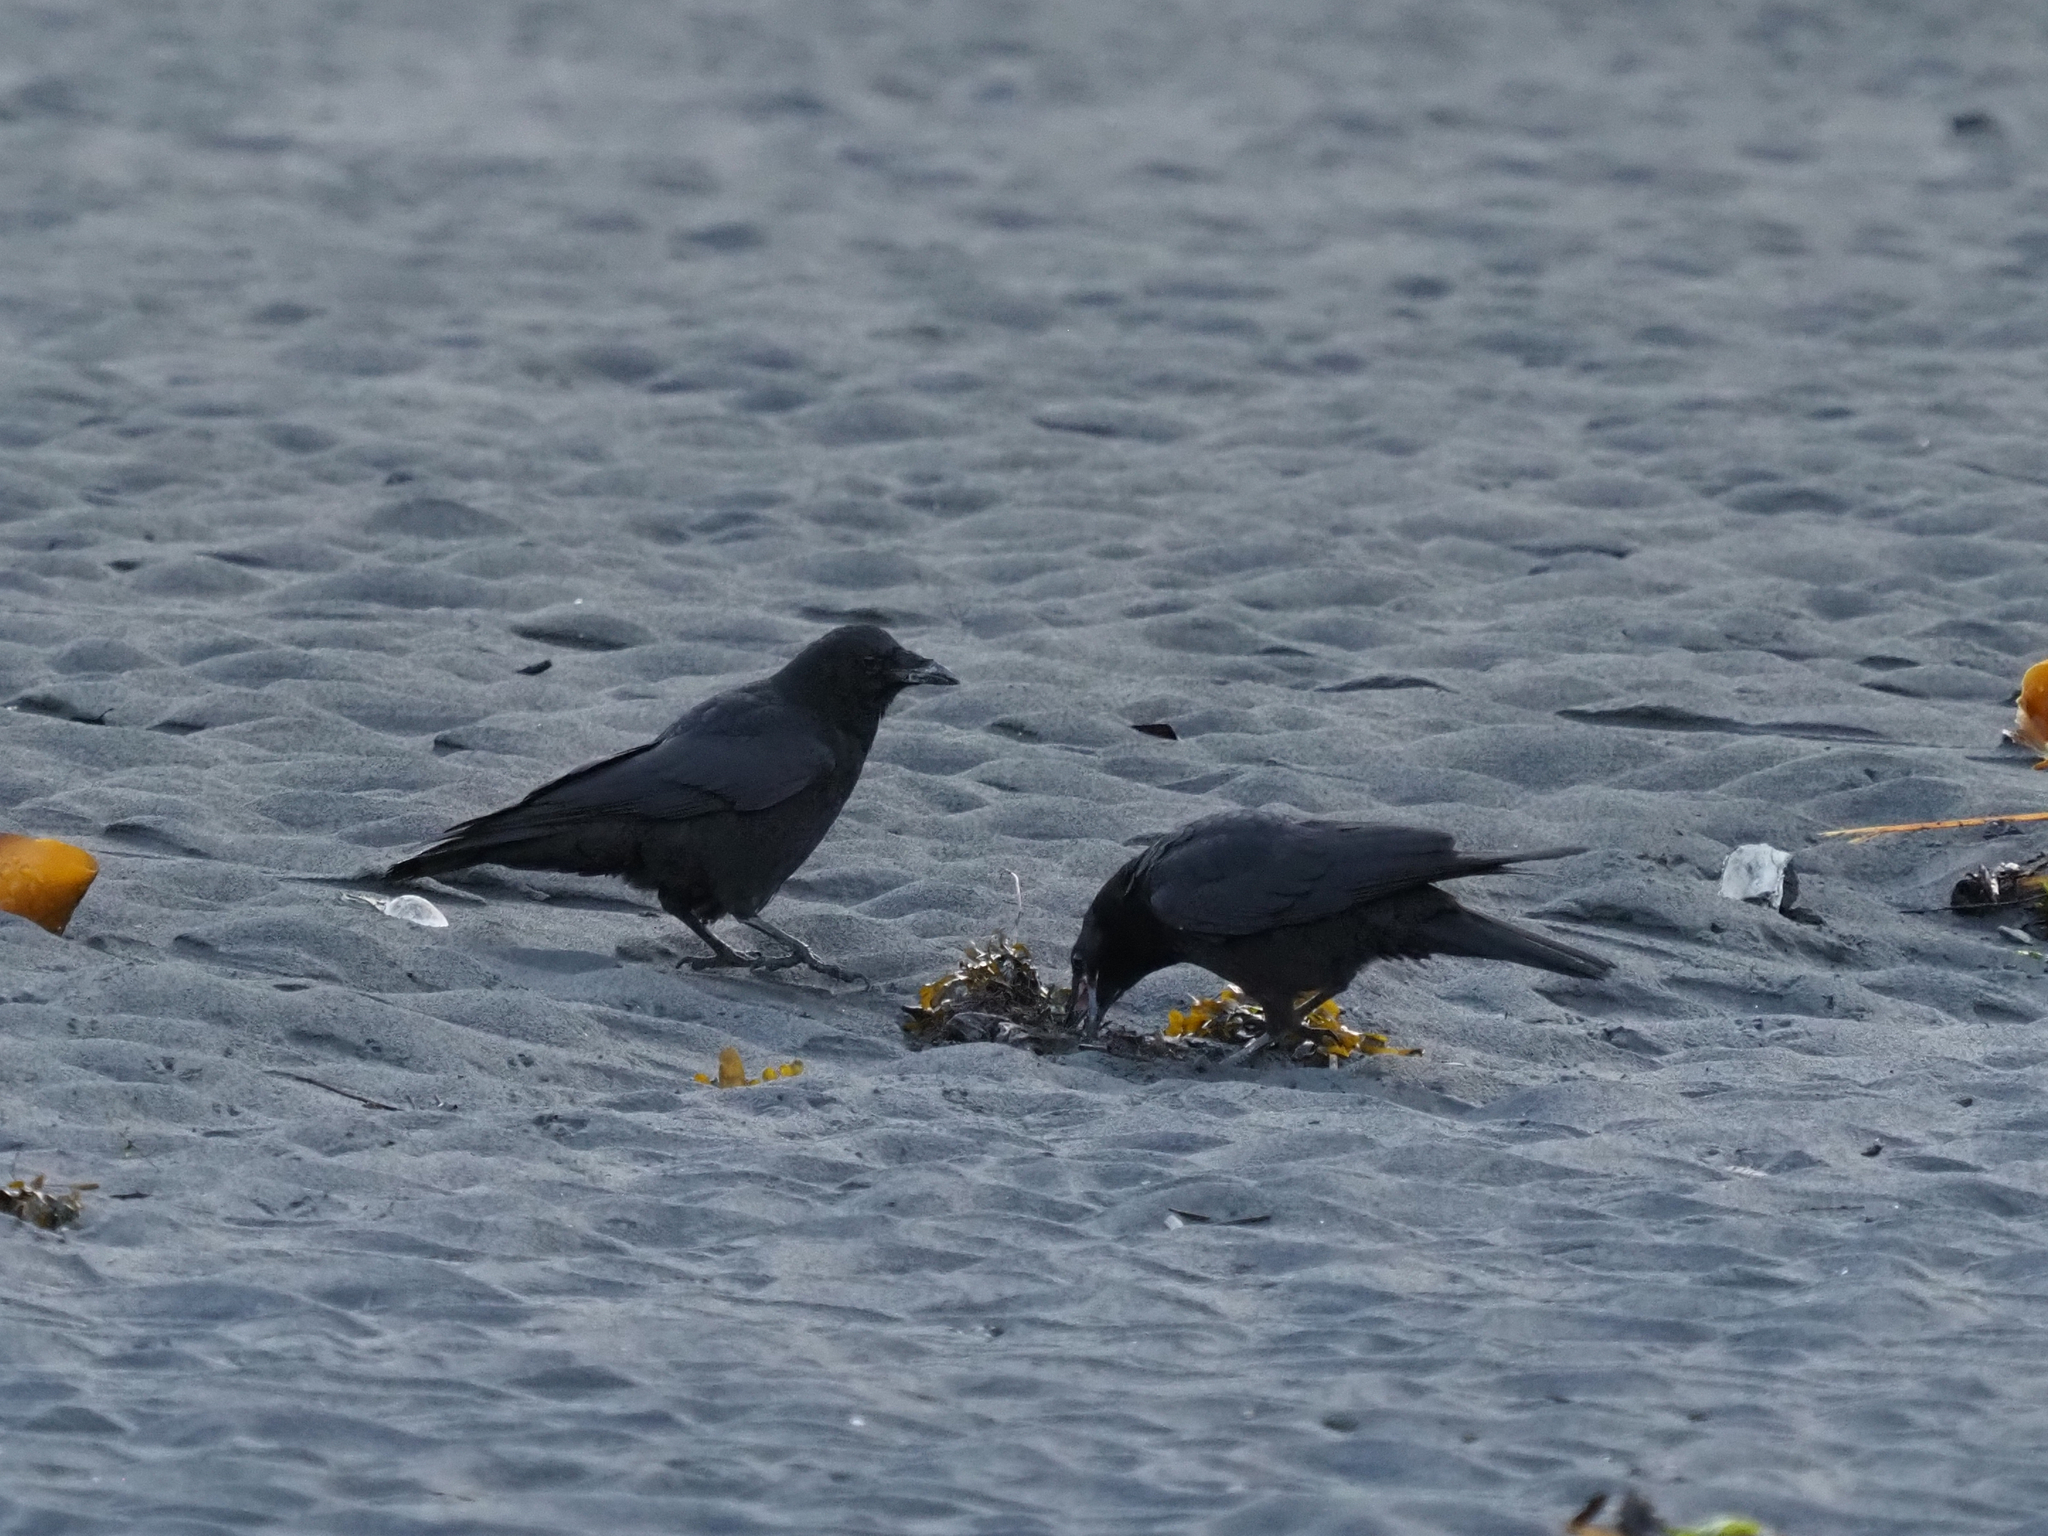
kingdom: Animalia
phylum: Chordata
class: Aves
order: Passeriformes
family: Corvidae
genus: Corvus
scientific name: Corvus brachyrhynchos
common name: American crow
